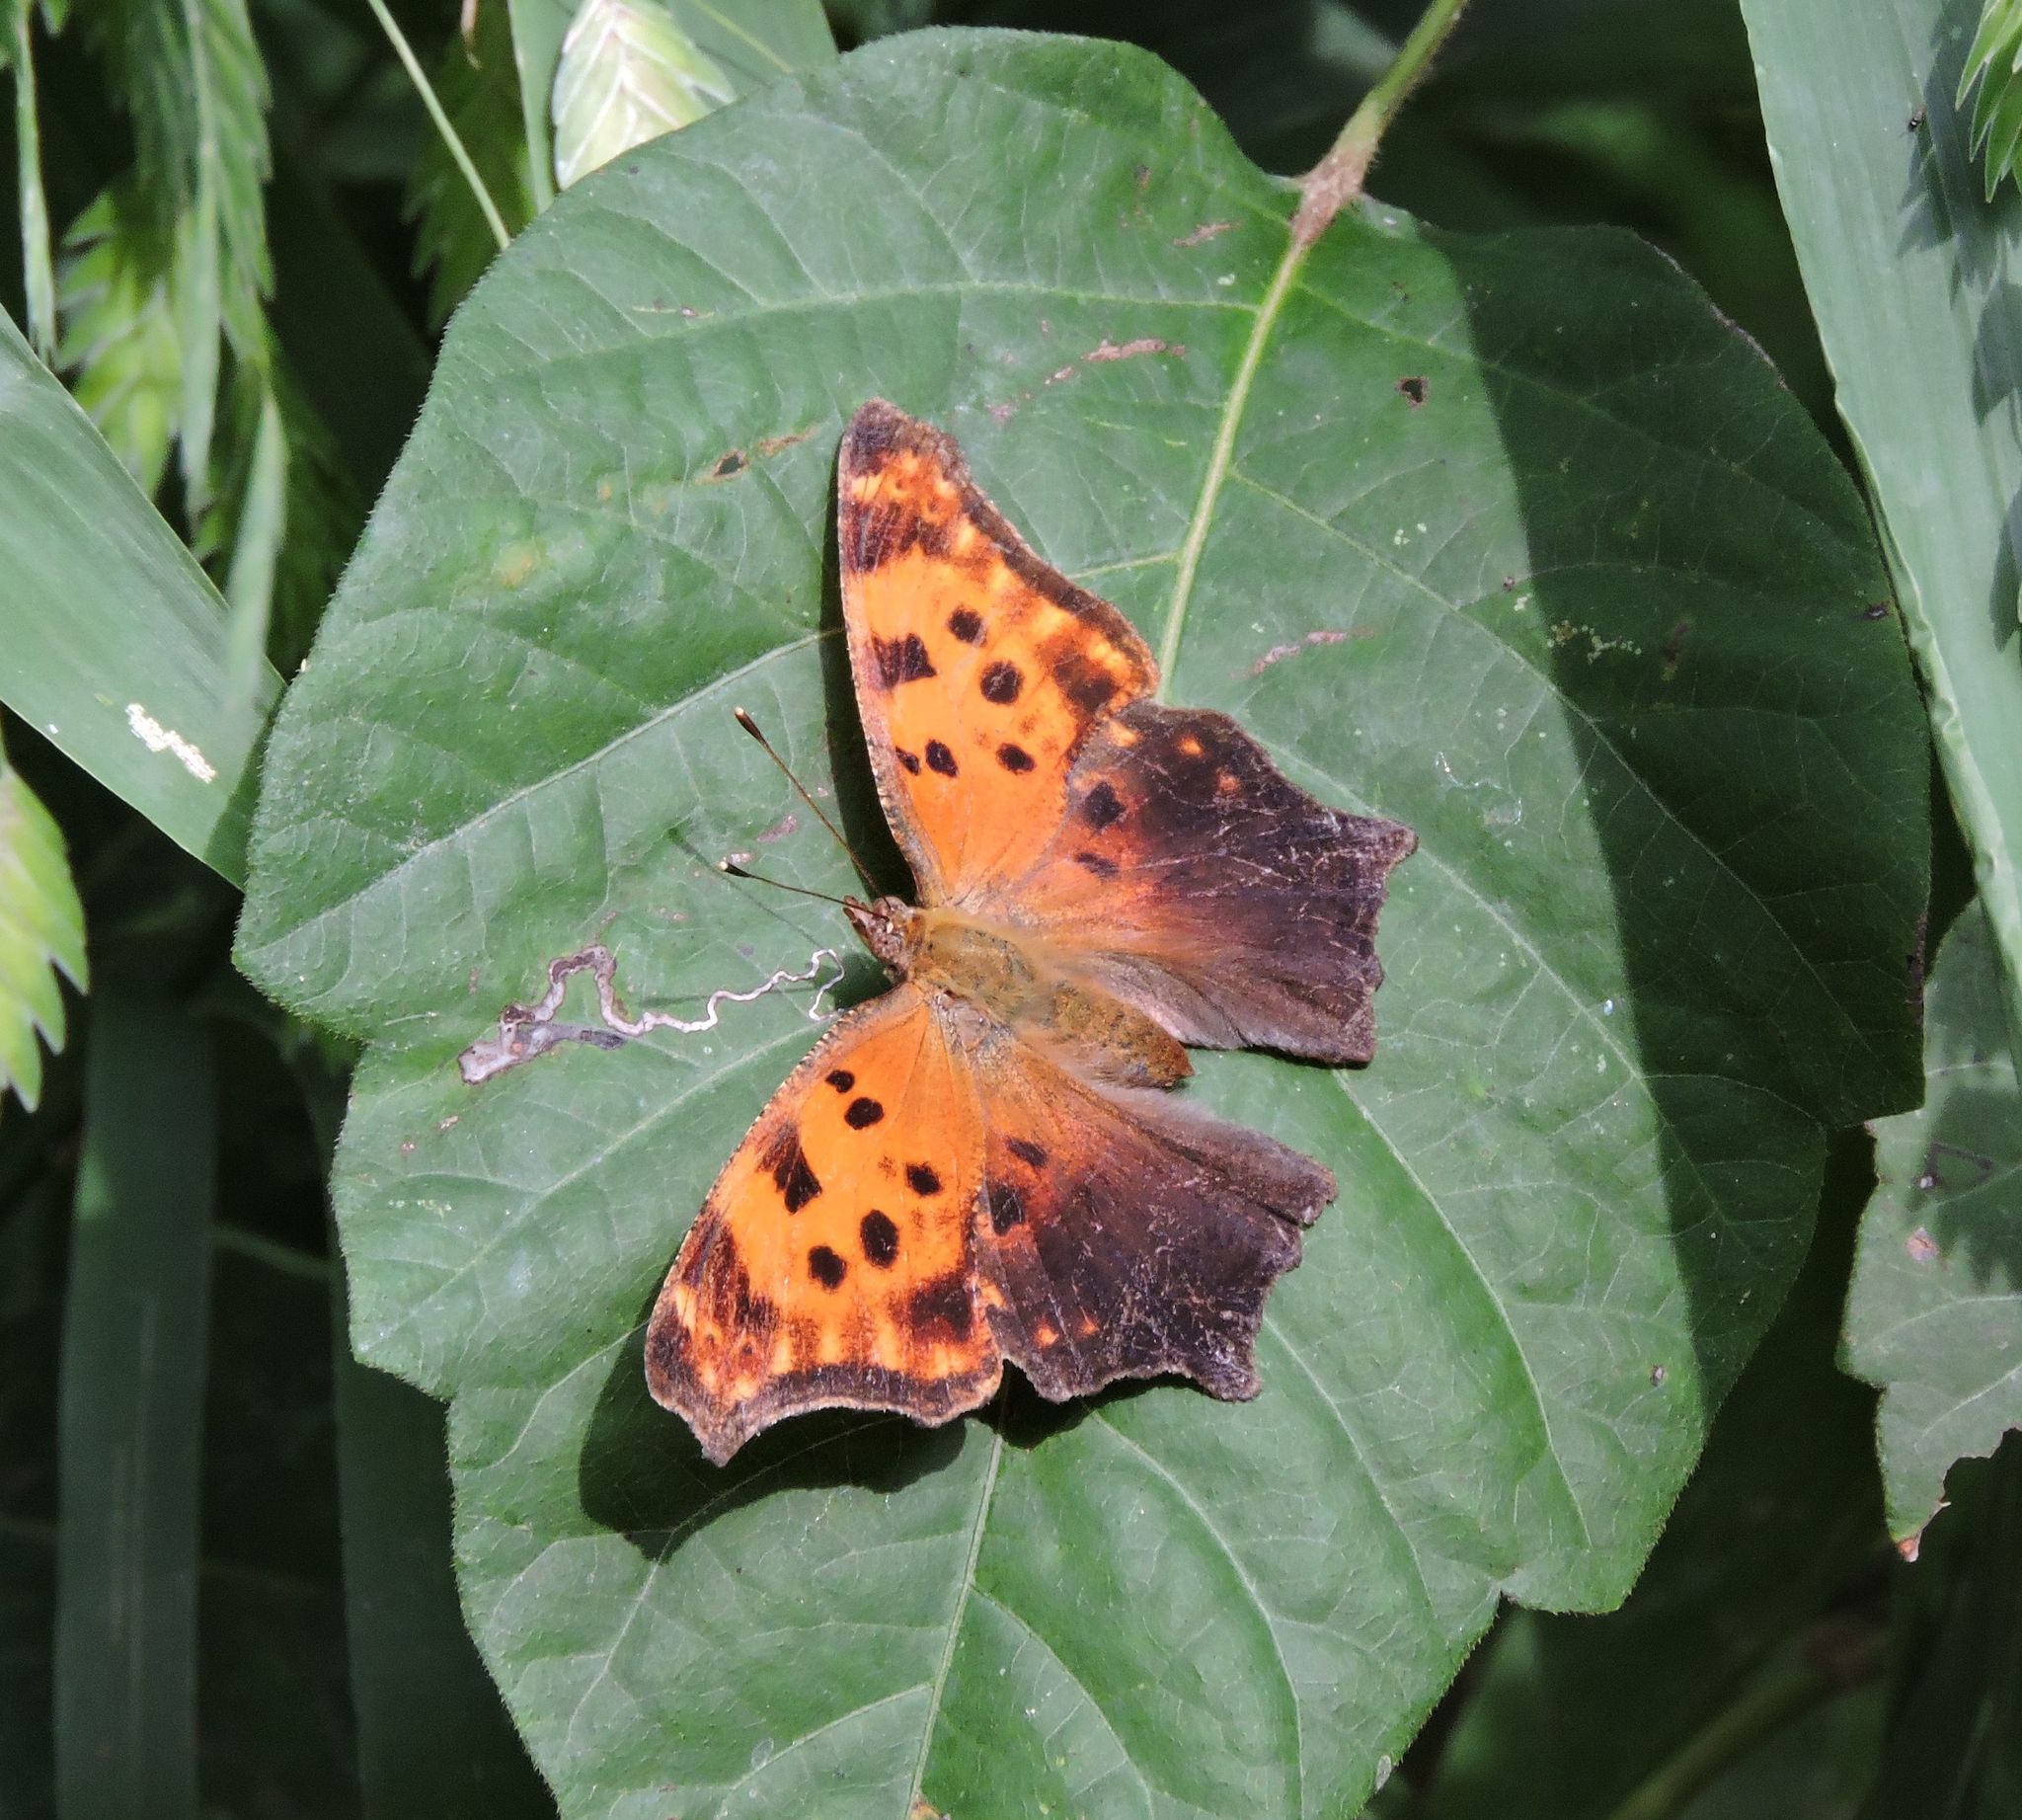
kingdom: Animalia
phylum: Arthropoda
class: Insecta
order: Lepidoptera
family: Nymphalidae
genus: Polygonia
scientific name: Polygonia comma
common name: Eastern comma
